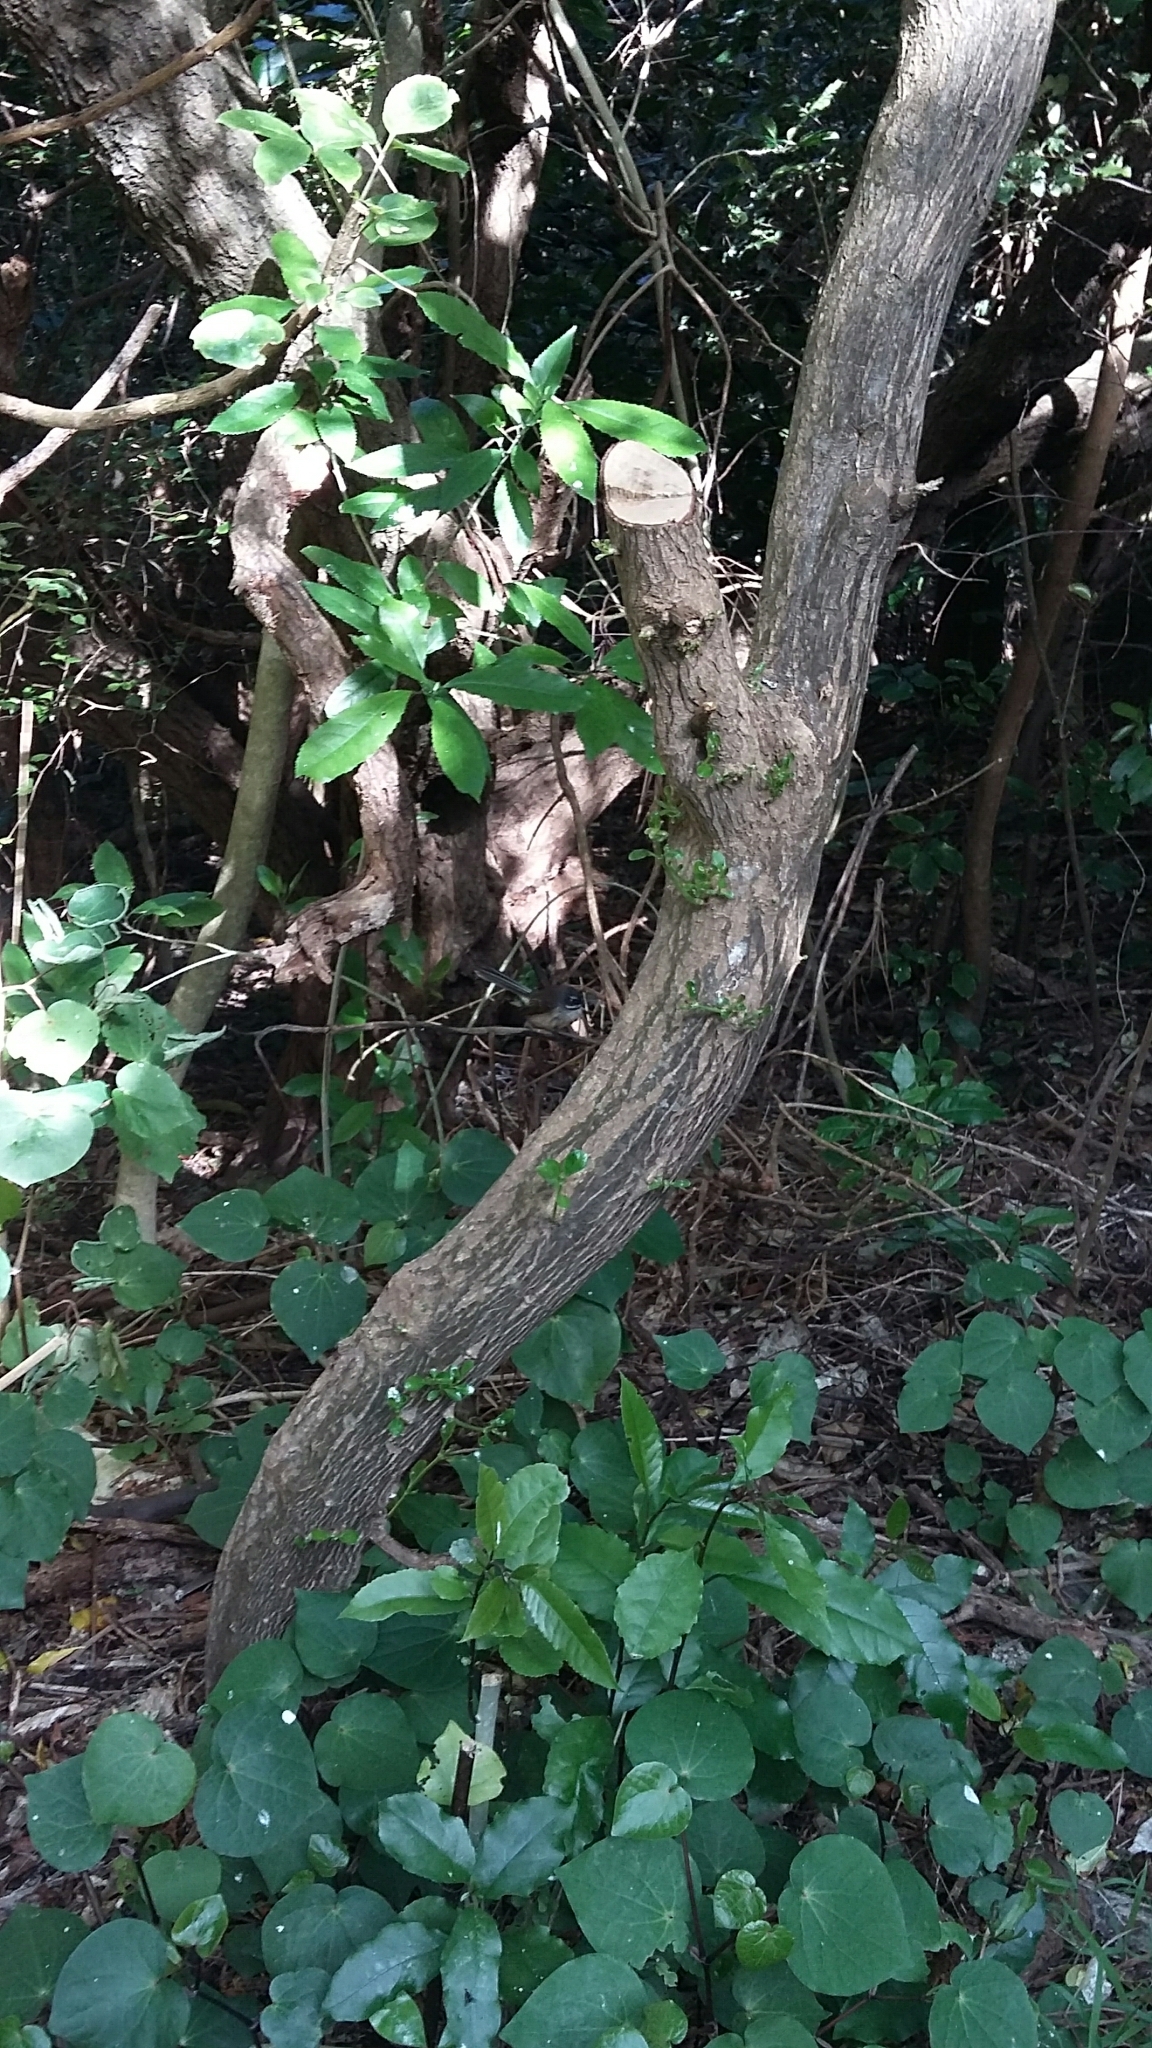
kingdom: Animalia
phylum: Chordata
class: Aves
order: Passeriformes
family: Rhipiduridae
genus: Rhipidura
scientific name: Rhipidura fuliginosa
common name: New zealand fantail
